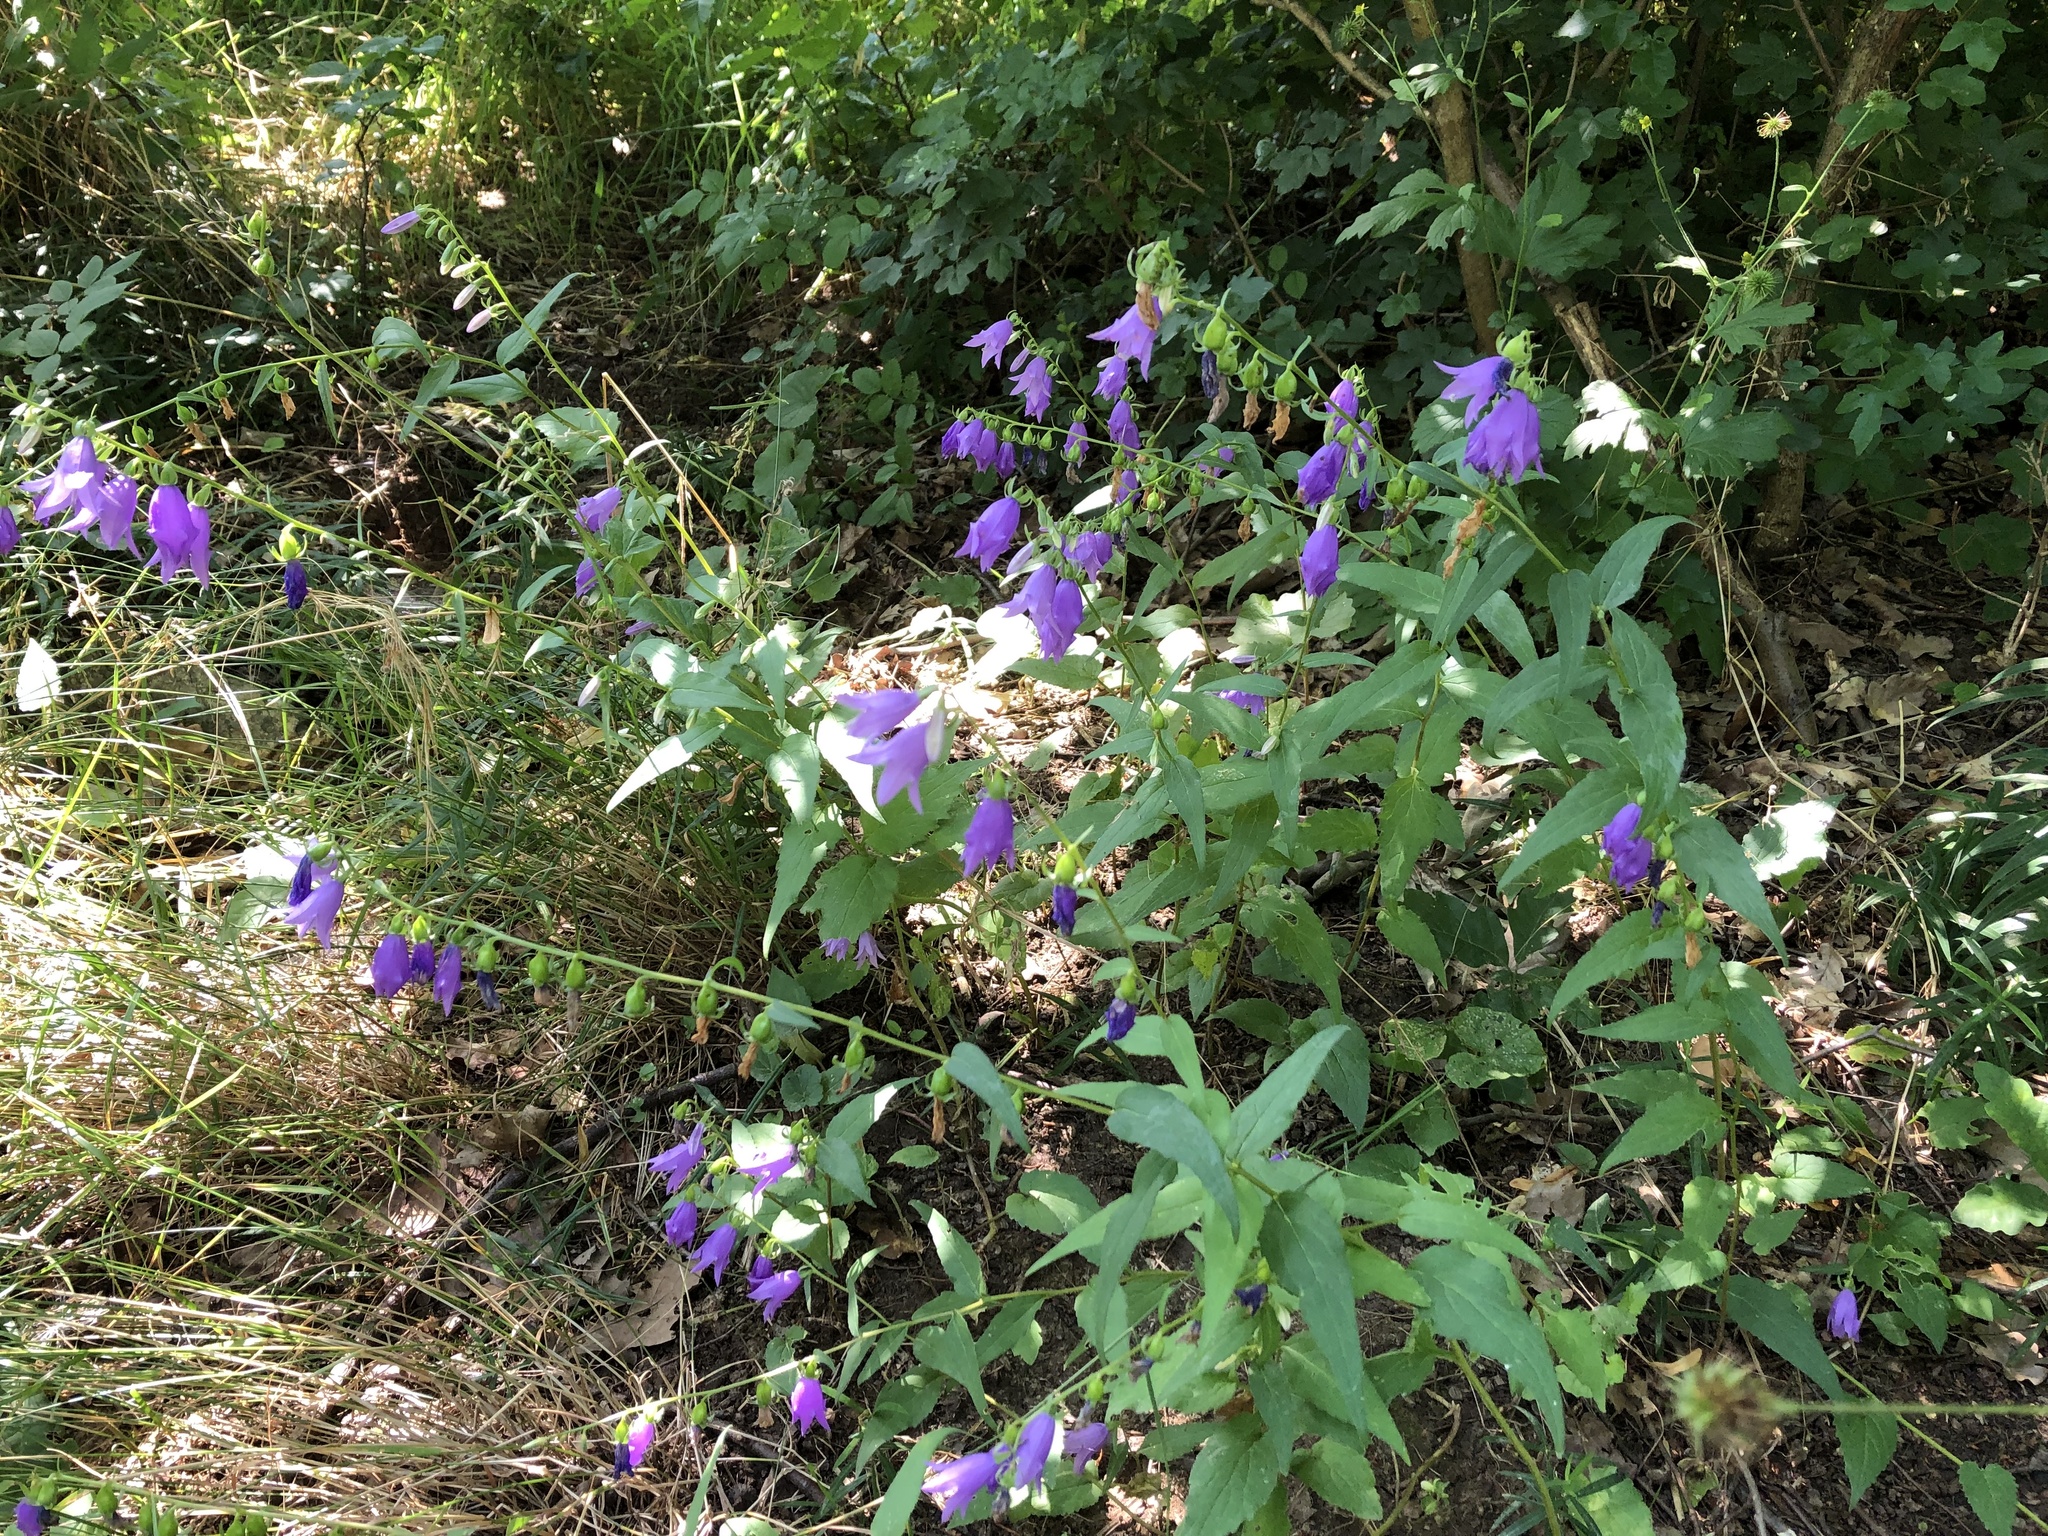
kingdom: Plantae
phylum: Tracheophyta
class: Magnoliopsida
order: Asterales
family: Campanulaceae
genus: Campanula
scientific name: Campanula rapunculoides
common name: Creeping bellflower
